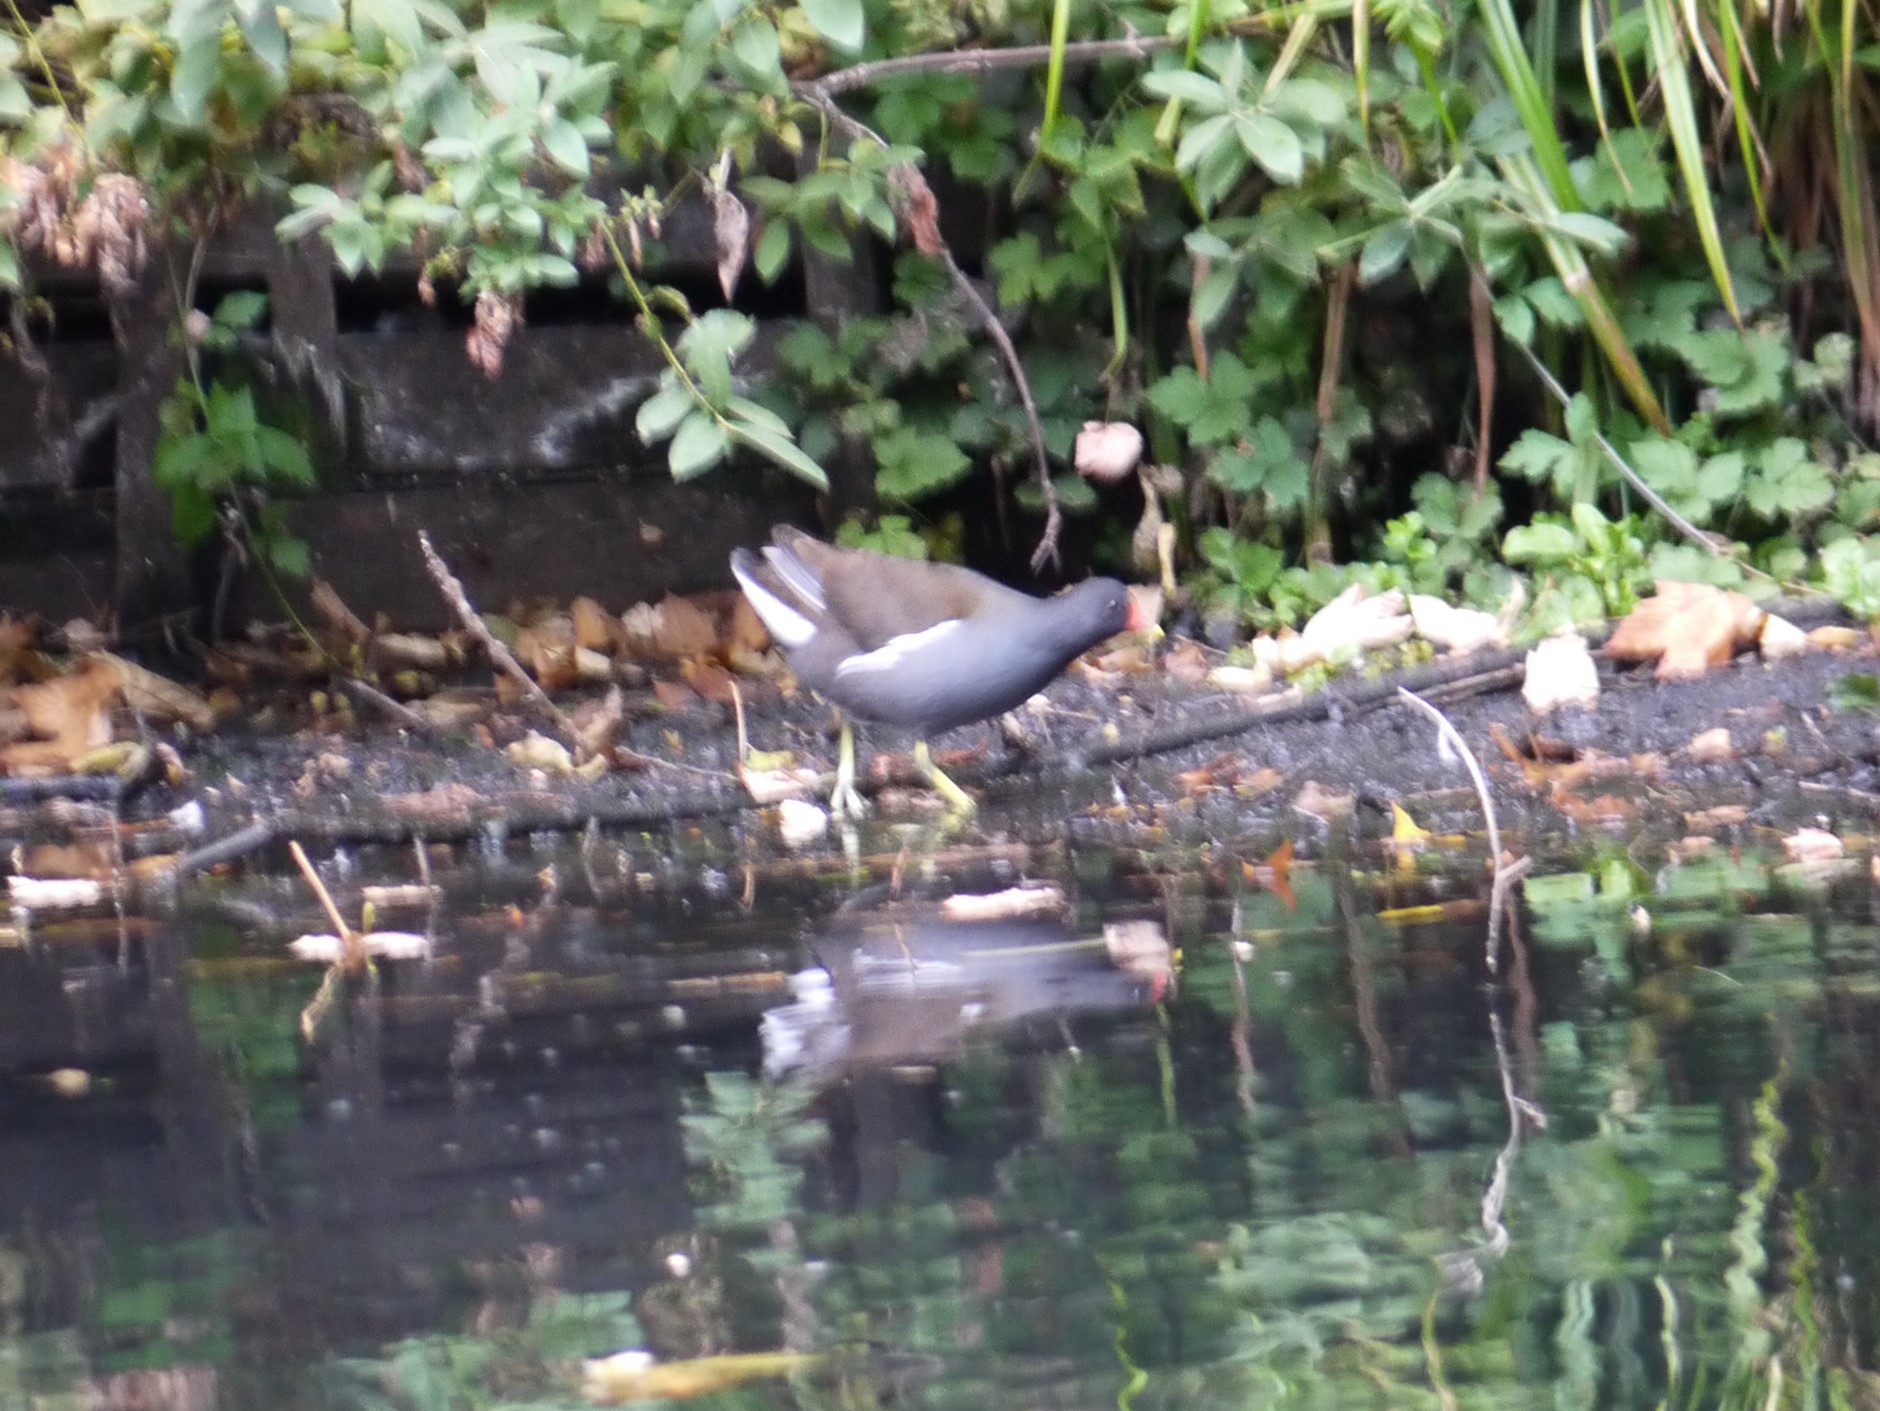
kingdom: Animalia
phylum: Chordata
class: Aves
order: Gruiformes
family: Rallidae
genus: Gallinula
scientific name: Gallinula chloropus
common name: Common moorhen
